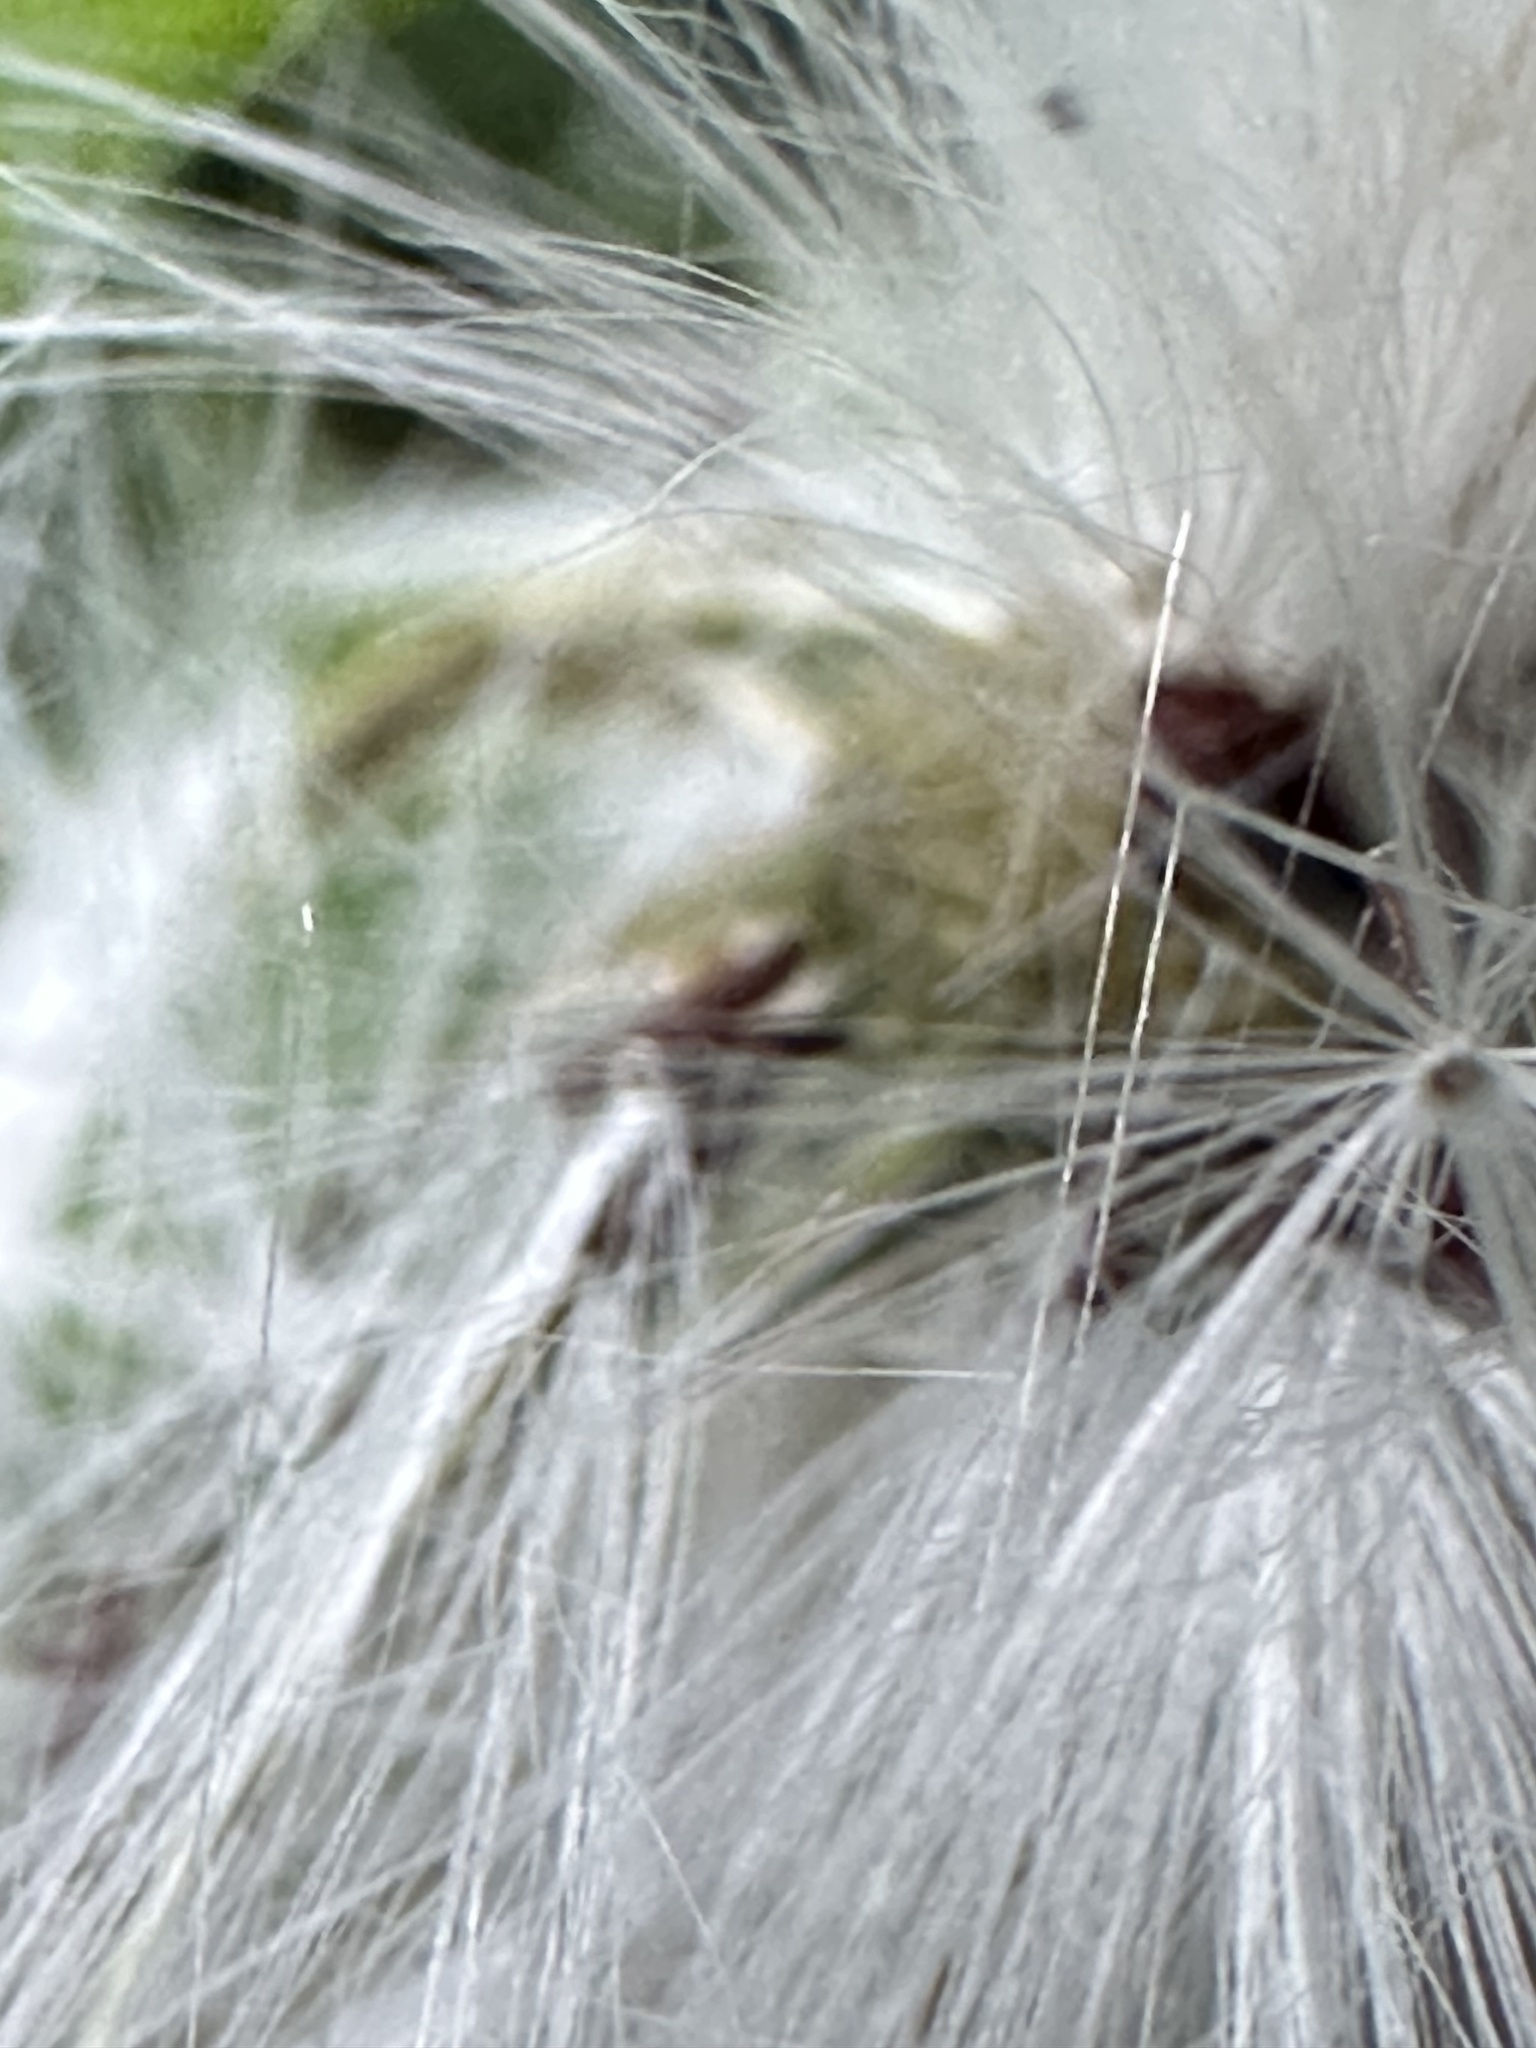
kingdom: Plantae
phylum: Tracheophyta
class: Magnoliopsida
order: Asterales
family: Asteraceae
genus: Crassocephalum
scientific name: Crassocephalum crepidioides
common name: Redflower ragleaf
